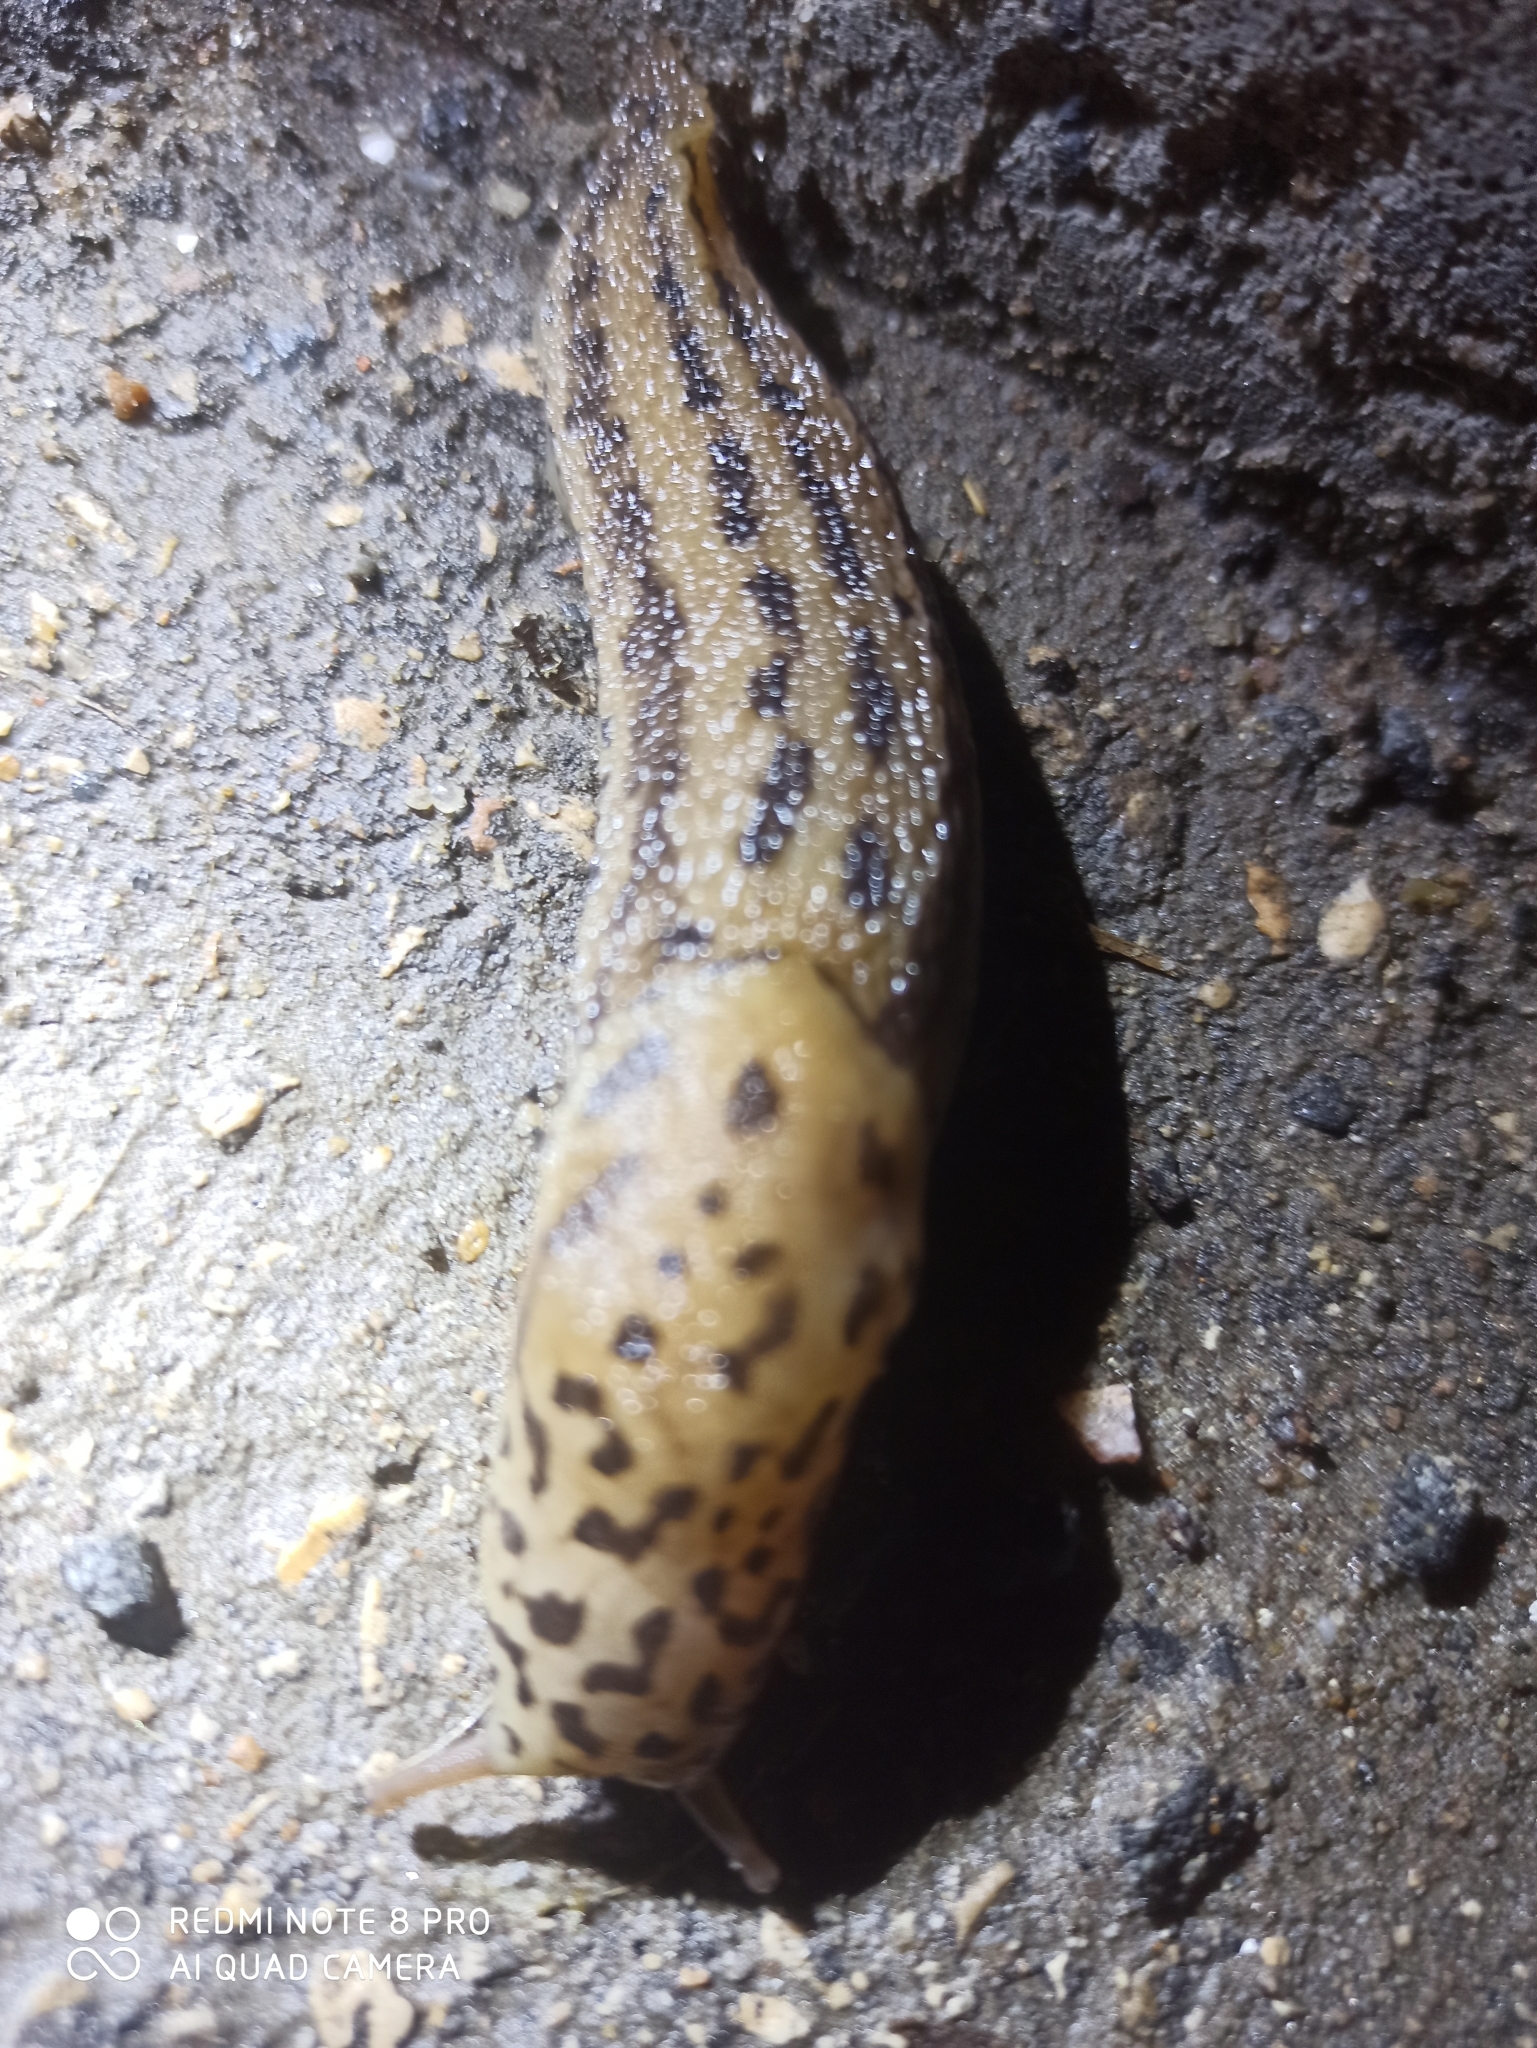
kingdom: Animalia
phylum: Mollusca
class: Gastropoda
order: Stylommatophora
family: Limacidae
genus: Limax
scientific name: Limax maximus
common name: Great grey slug
